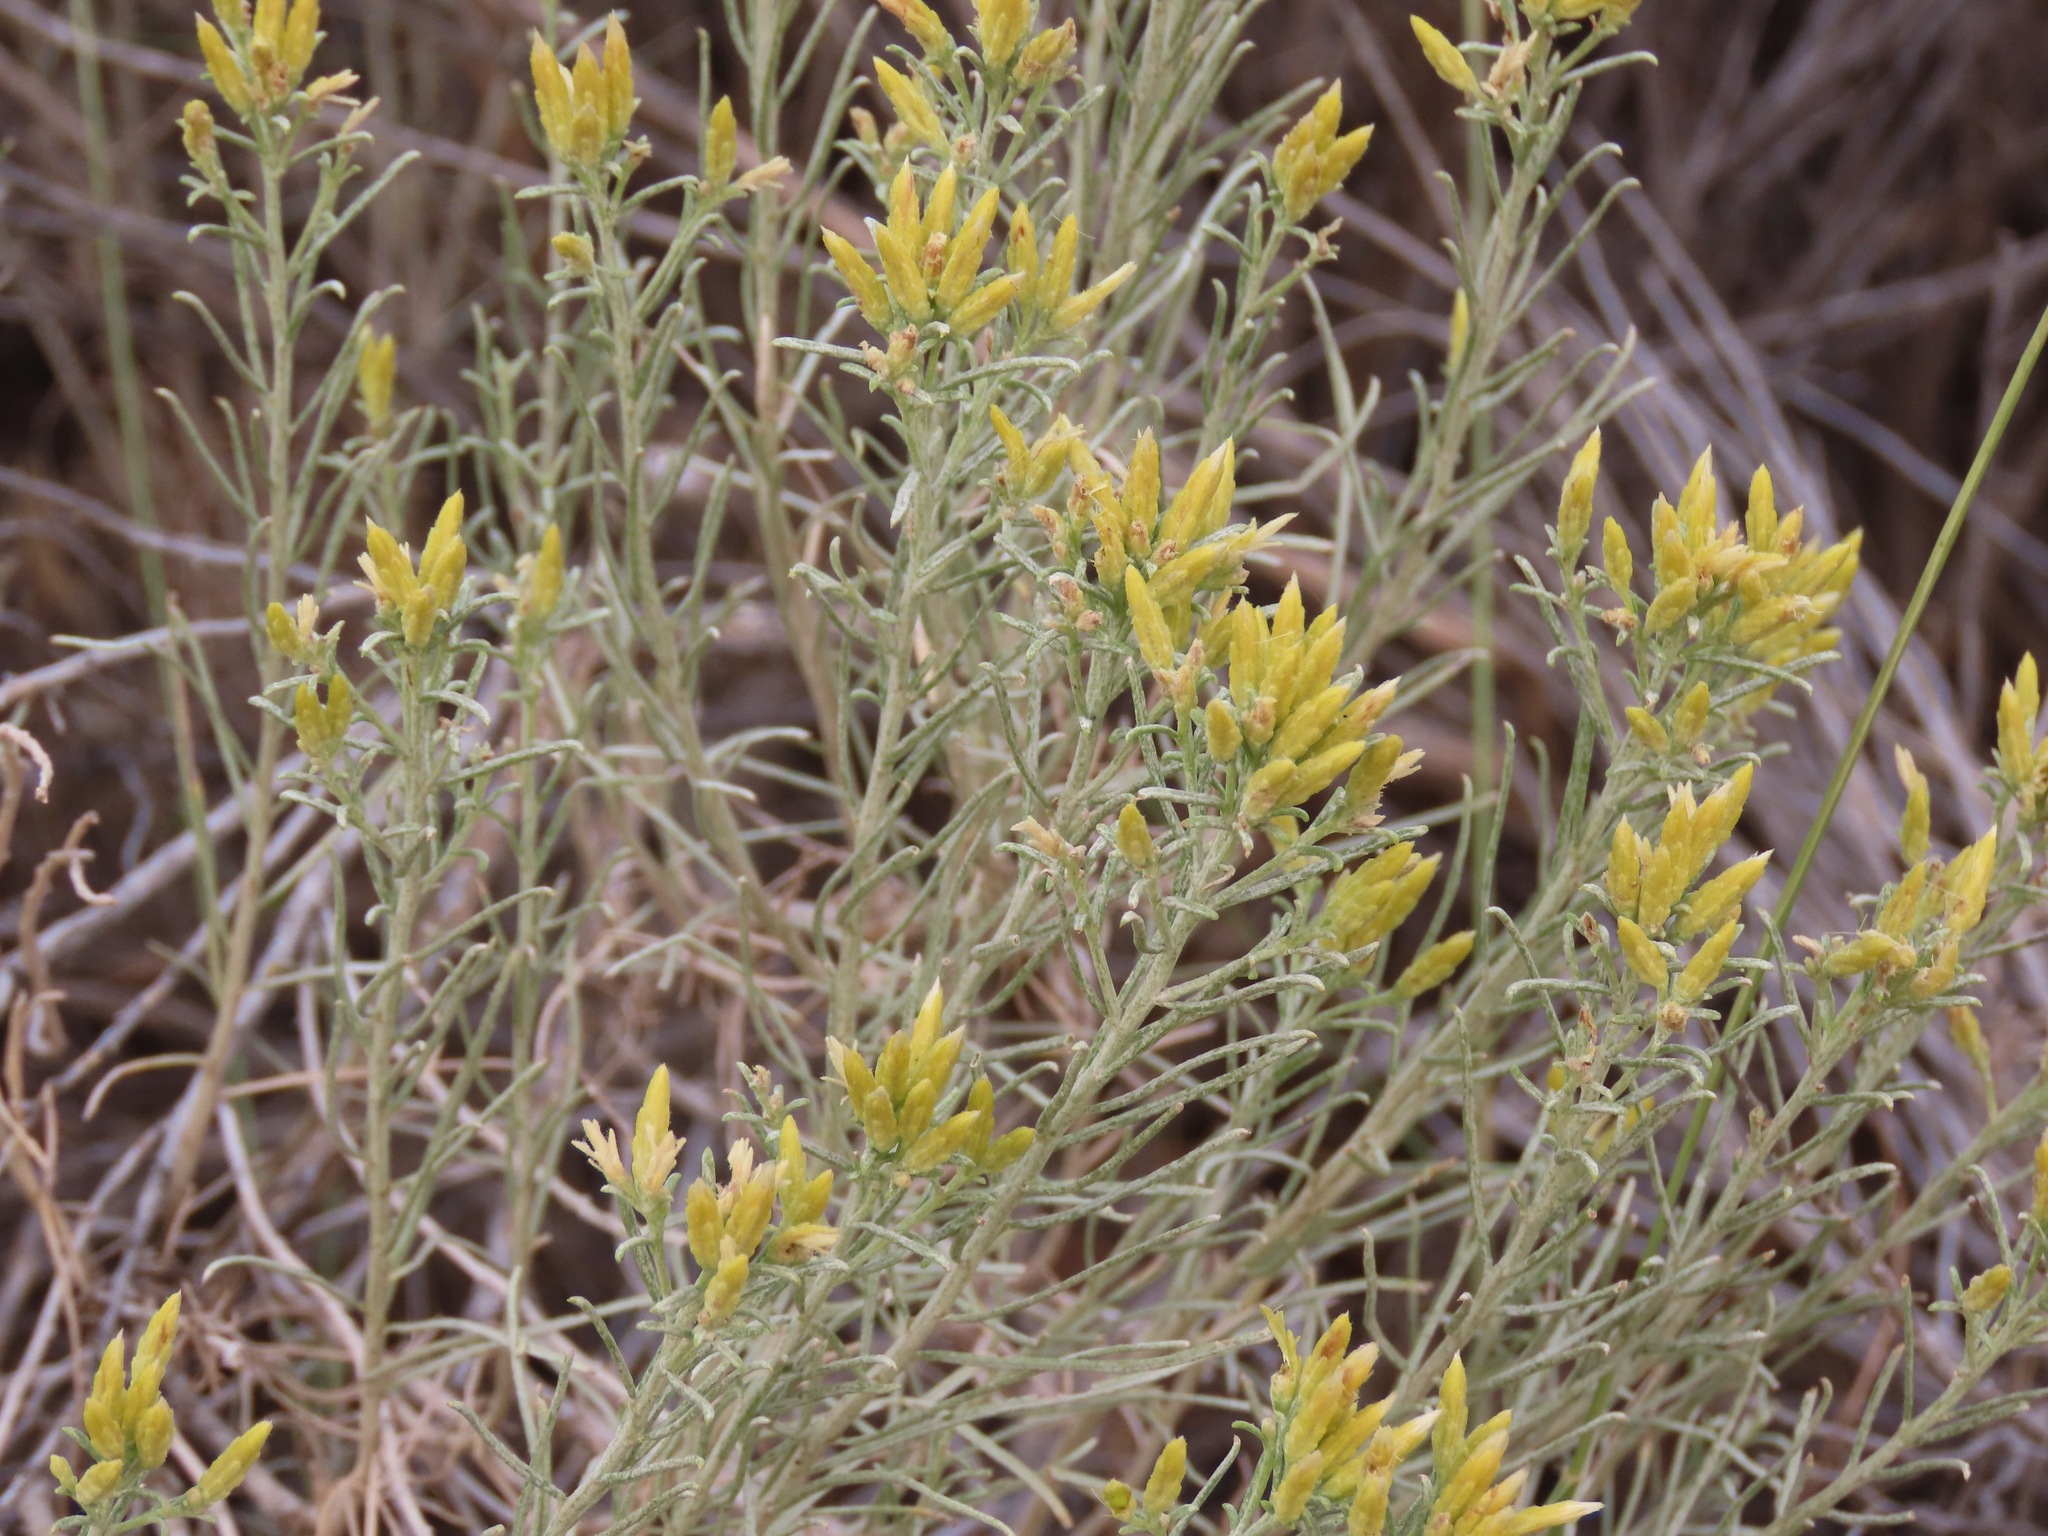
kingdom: Plantae
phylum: Tracheophyta
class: Magnoliopsida
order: Asterales
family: Asteraceae
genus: Ericameria
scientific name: Ericameria nauseosa
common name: Rubber rabbitbrush
